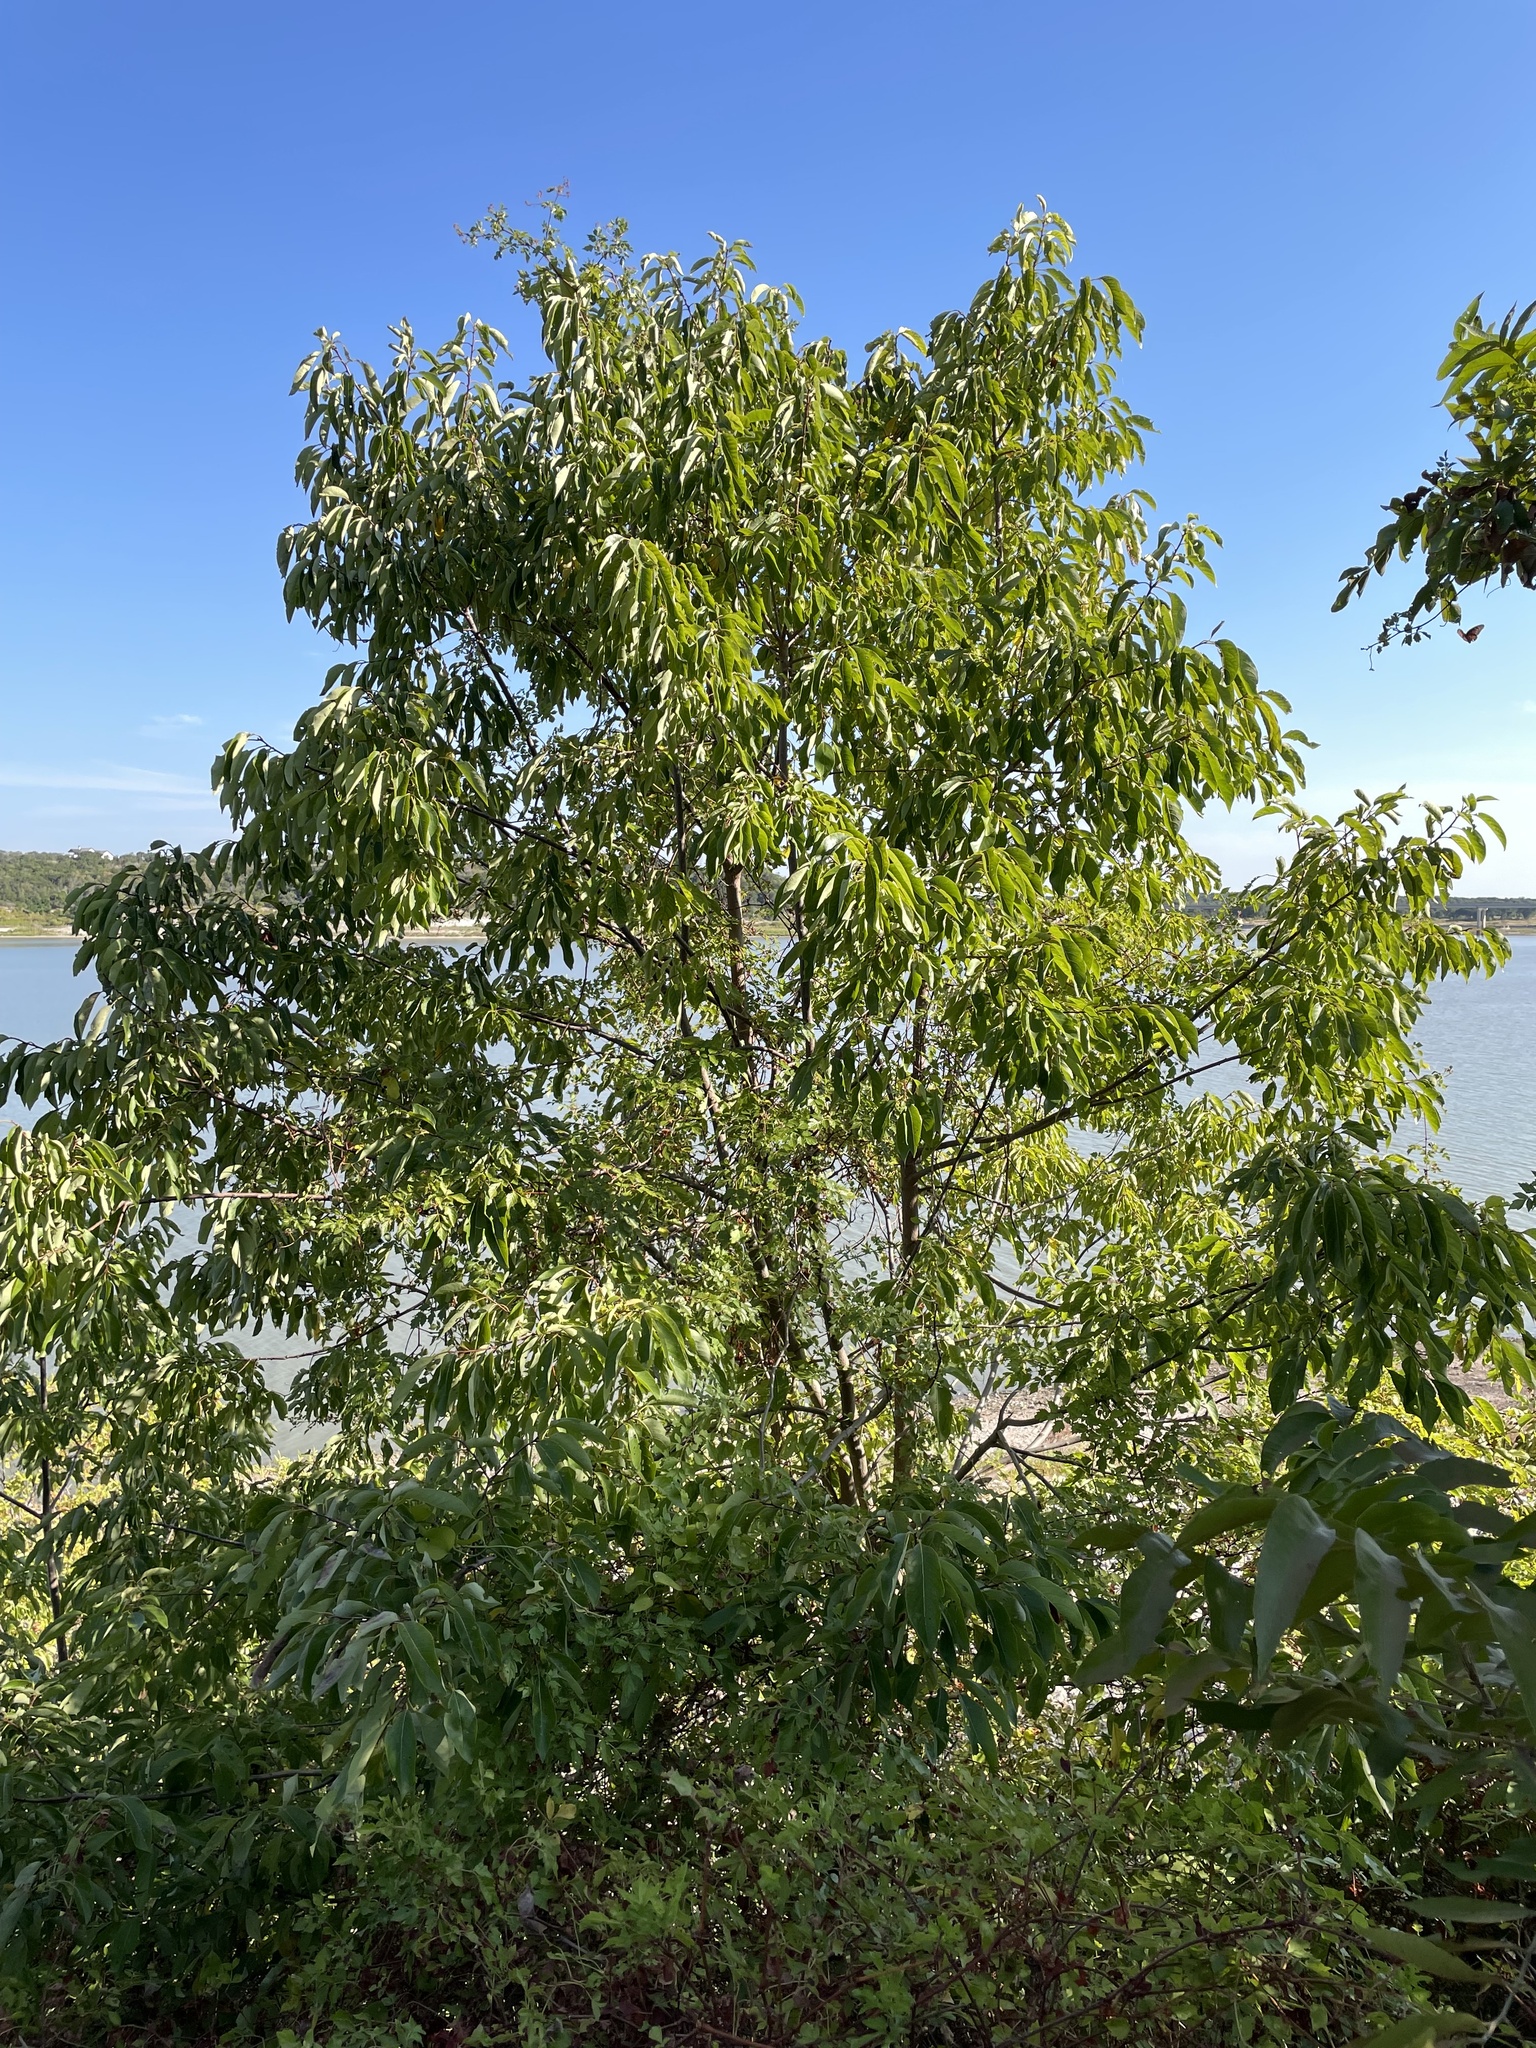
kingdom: Plantae
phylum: Tracheophyta
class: Magnoliopsida
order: Ericales
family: Ebenaceae
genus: Diospyros
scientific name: Diospyros virginiana
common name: Persimmon
